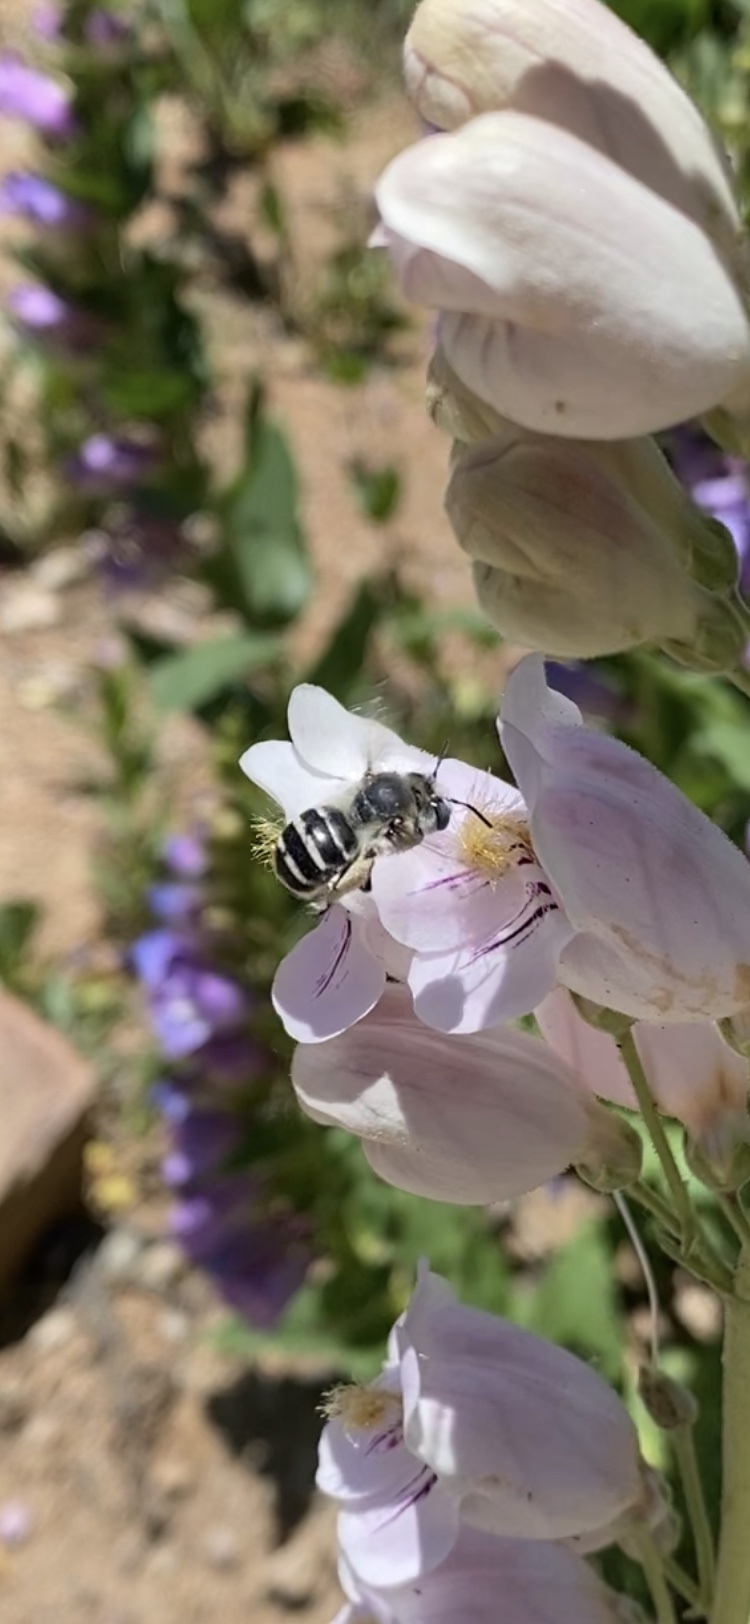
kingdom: Animalia
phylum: Arthropoda
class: Insecta
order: Hymenoptera
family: Apidae
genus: Anthophora
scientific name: Anthophora urbana
